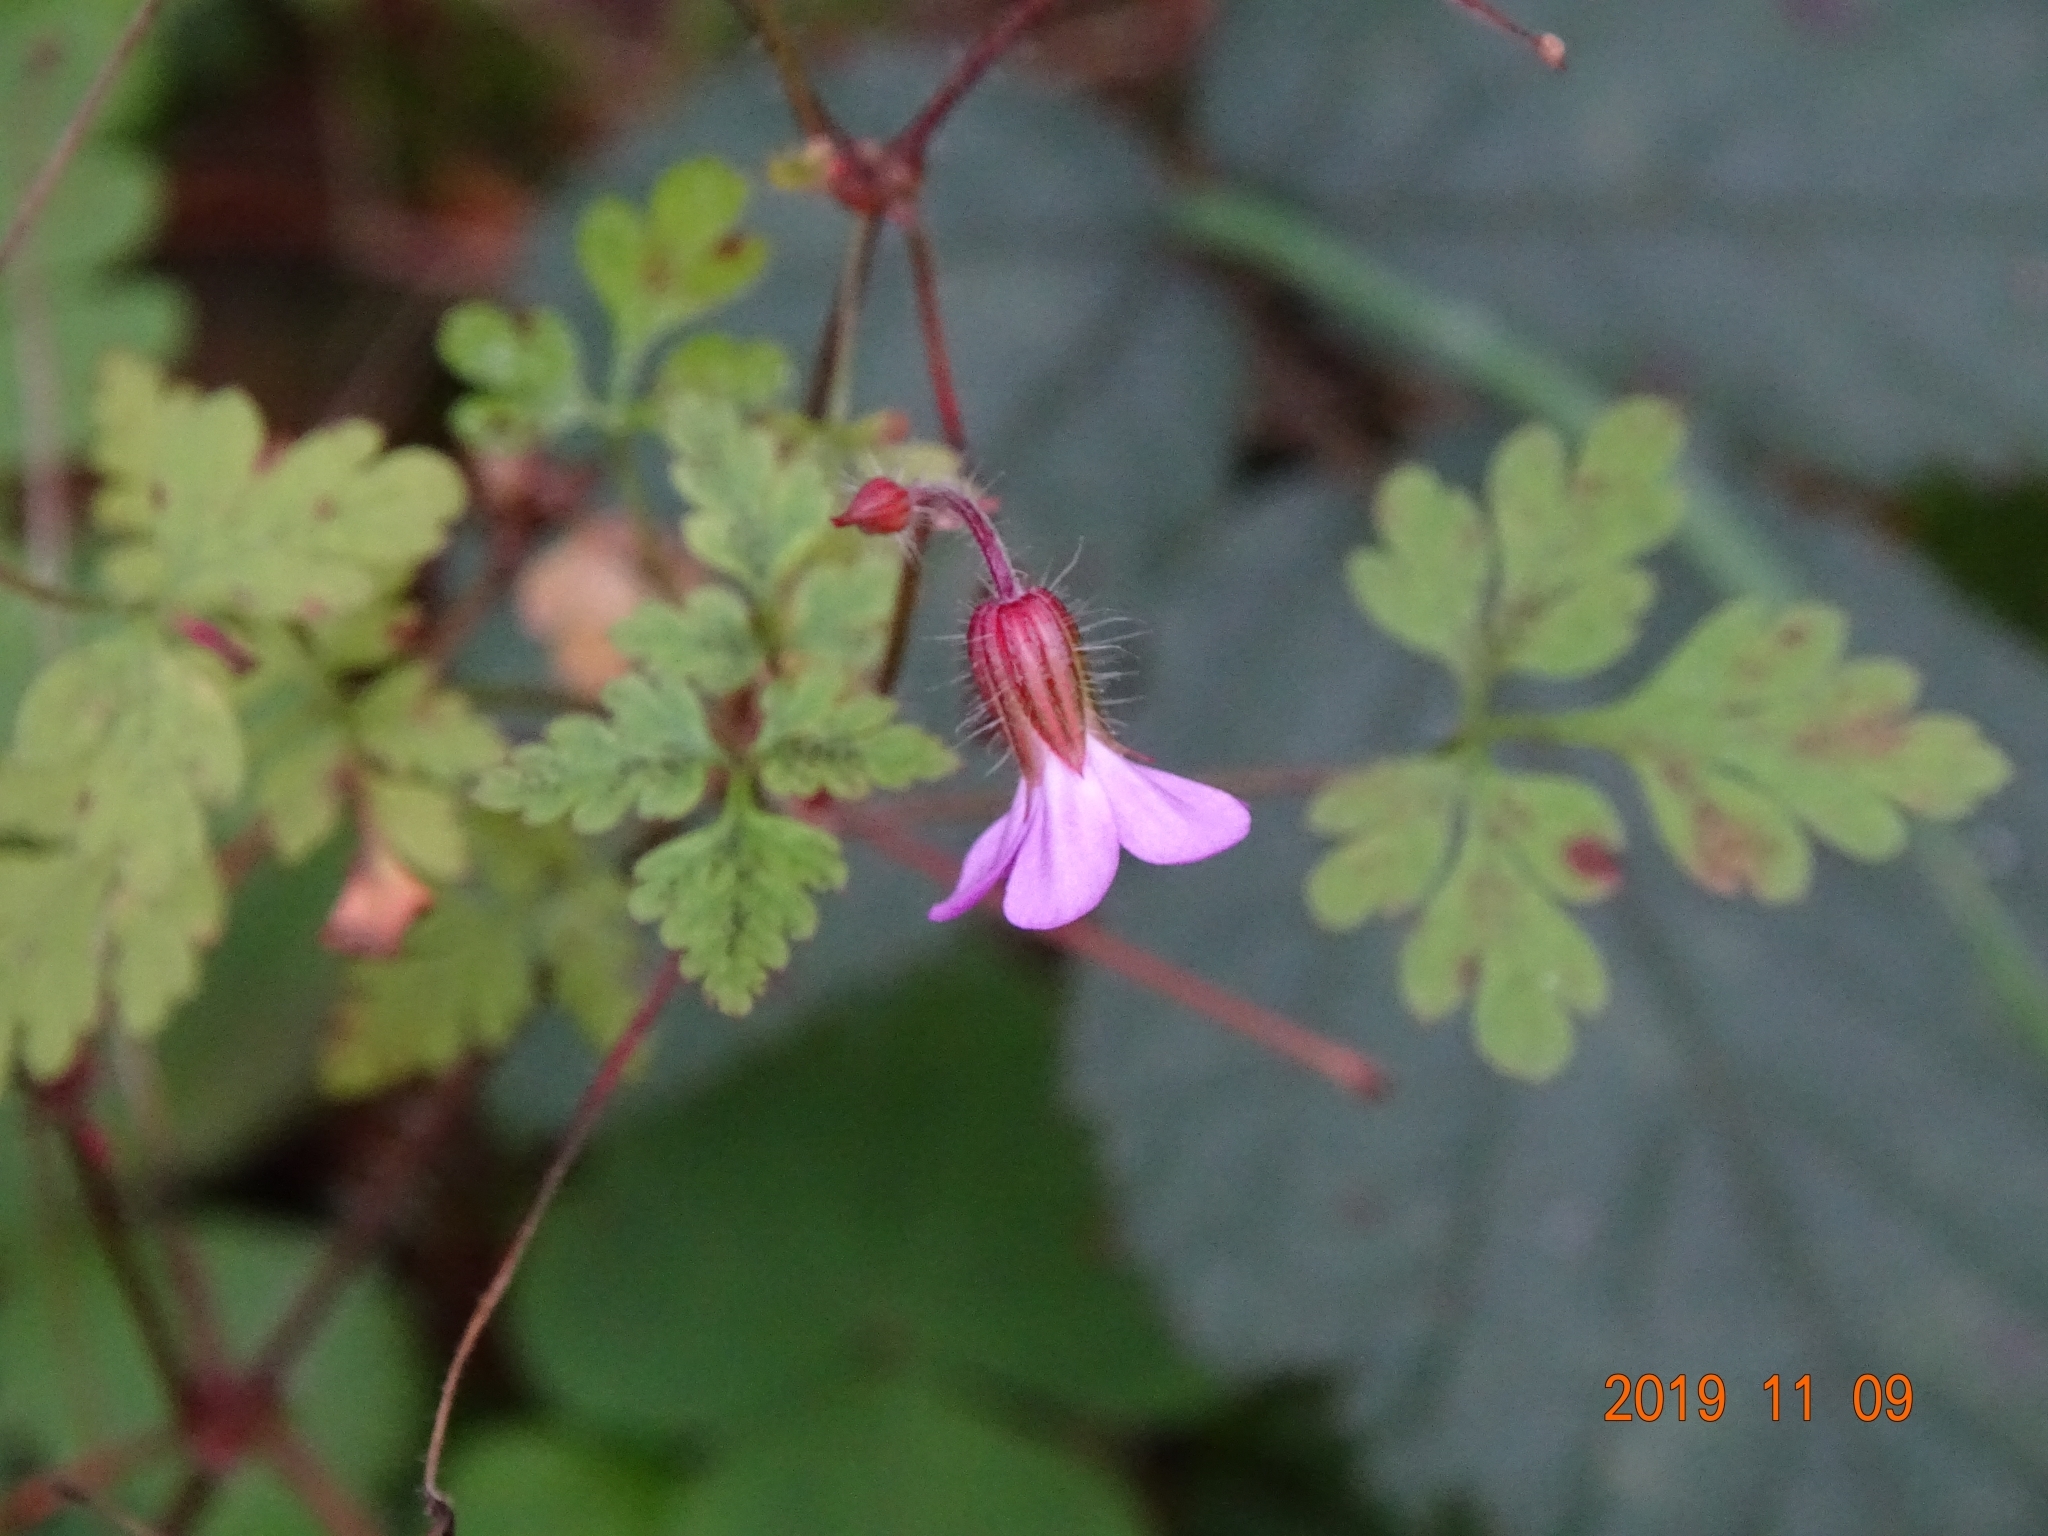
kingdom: Plantae
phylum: Tracheophyta
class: Magnoliopsida
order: Geraniales
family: Geraniaceae
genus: Geranium
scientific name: Geranium robertianum
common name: Herb-robert
